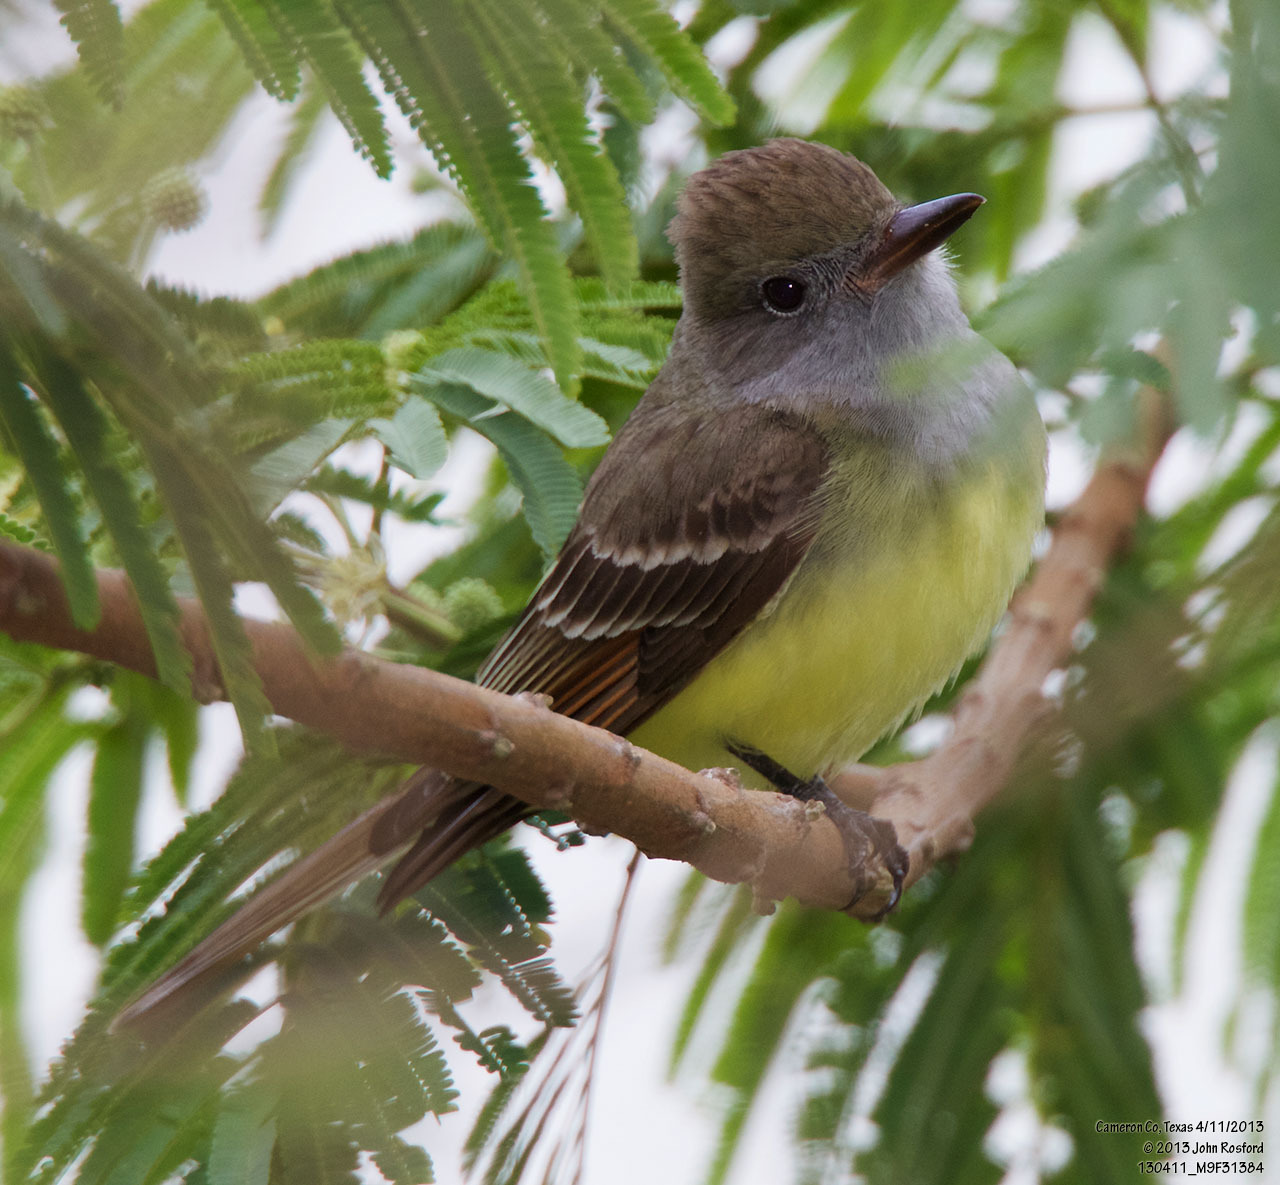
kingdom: Animalia
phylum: Chordata
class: Aves
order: Passeriformes
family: Tyrannidae
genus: Myiarchus
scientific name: Myiarchus crinitus
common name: Great crested flycatcher
